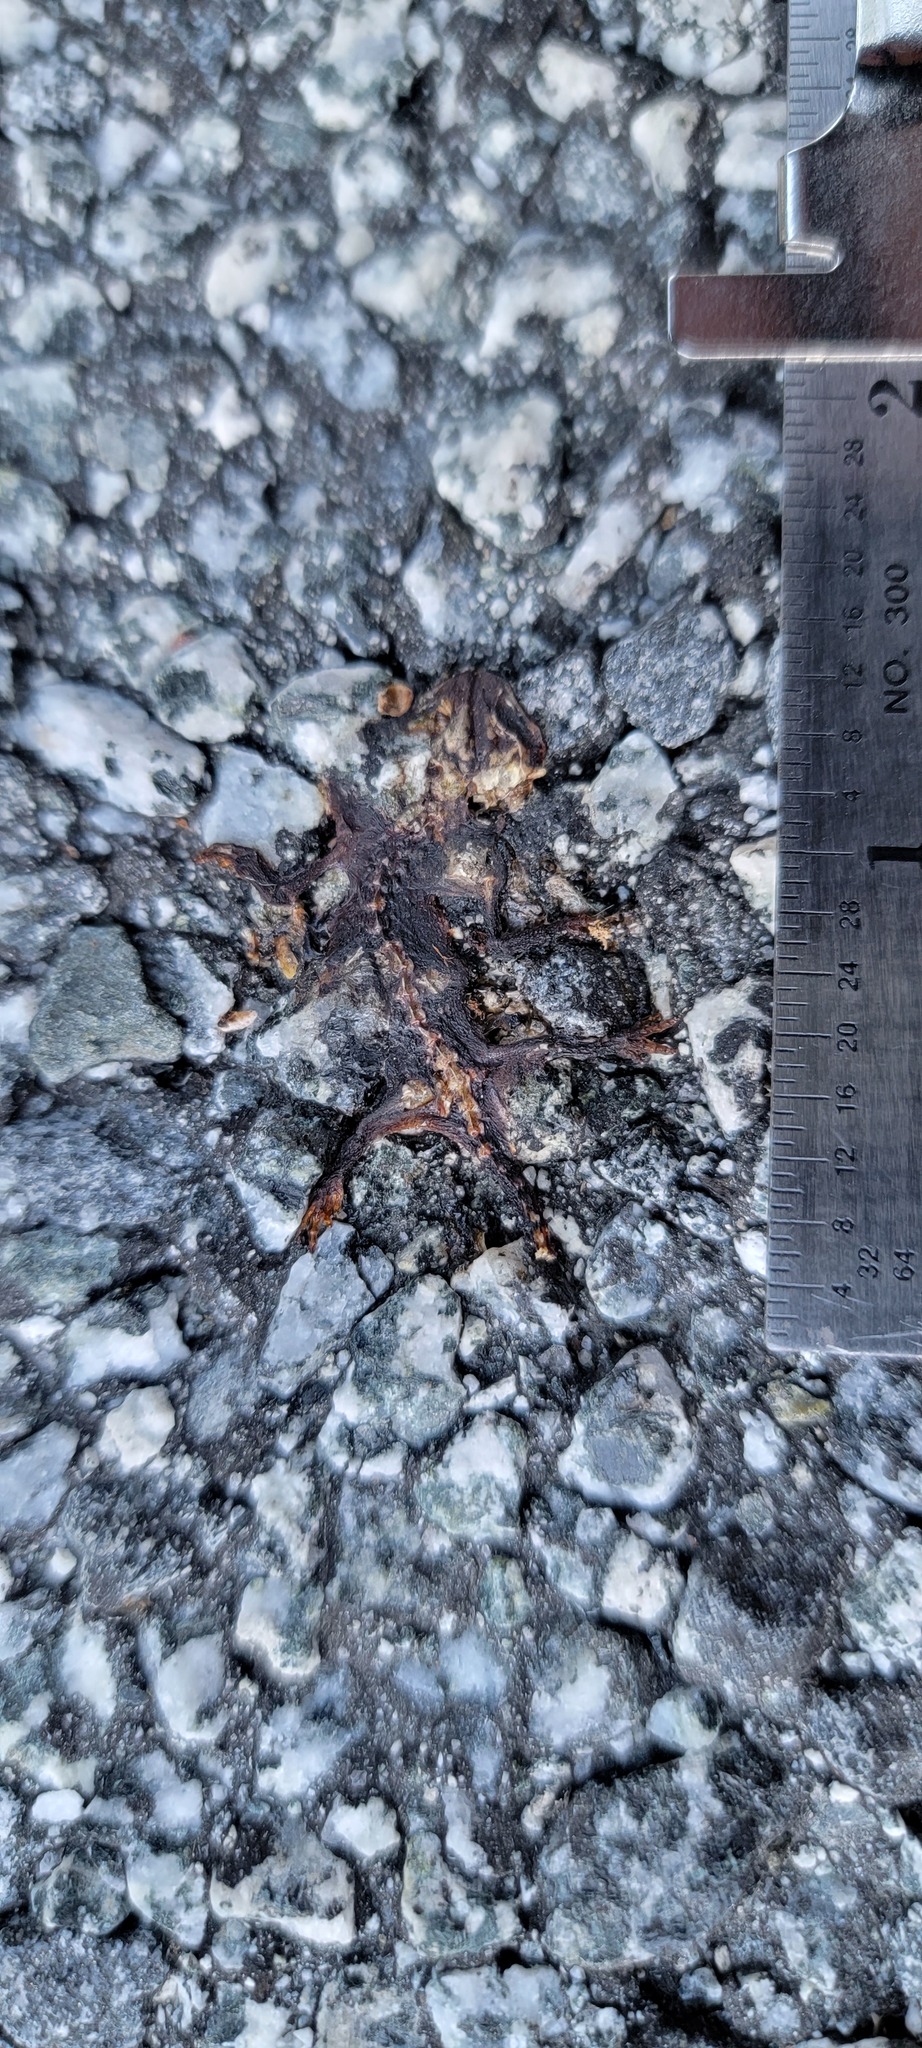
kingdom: Animalia
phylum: Chordata
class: Amphibia
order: Caudata
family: Salamandridae
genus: Taricha
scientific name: Taricha
